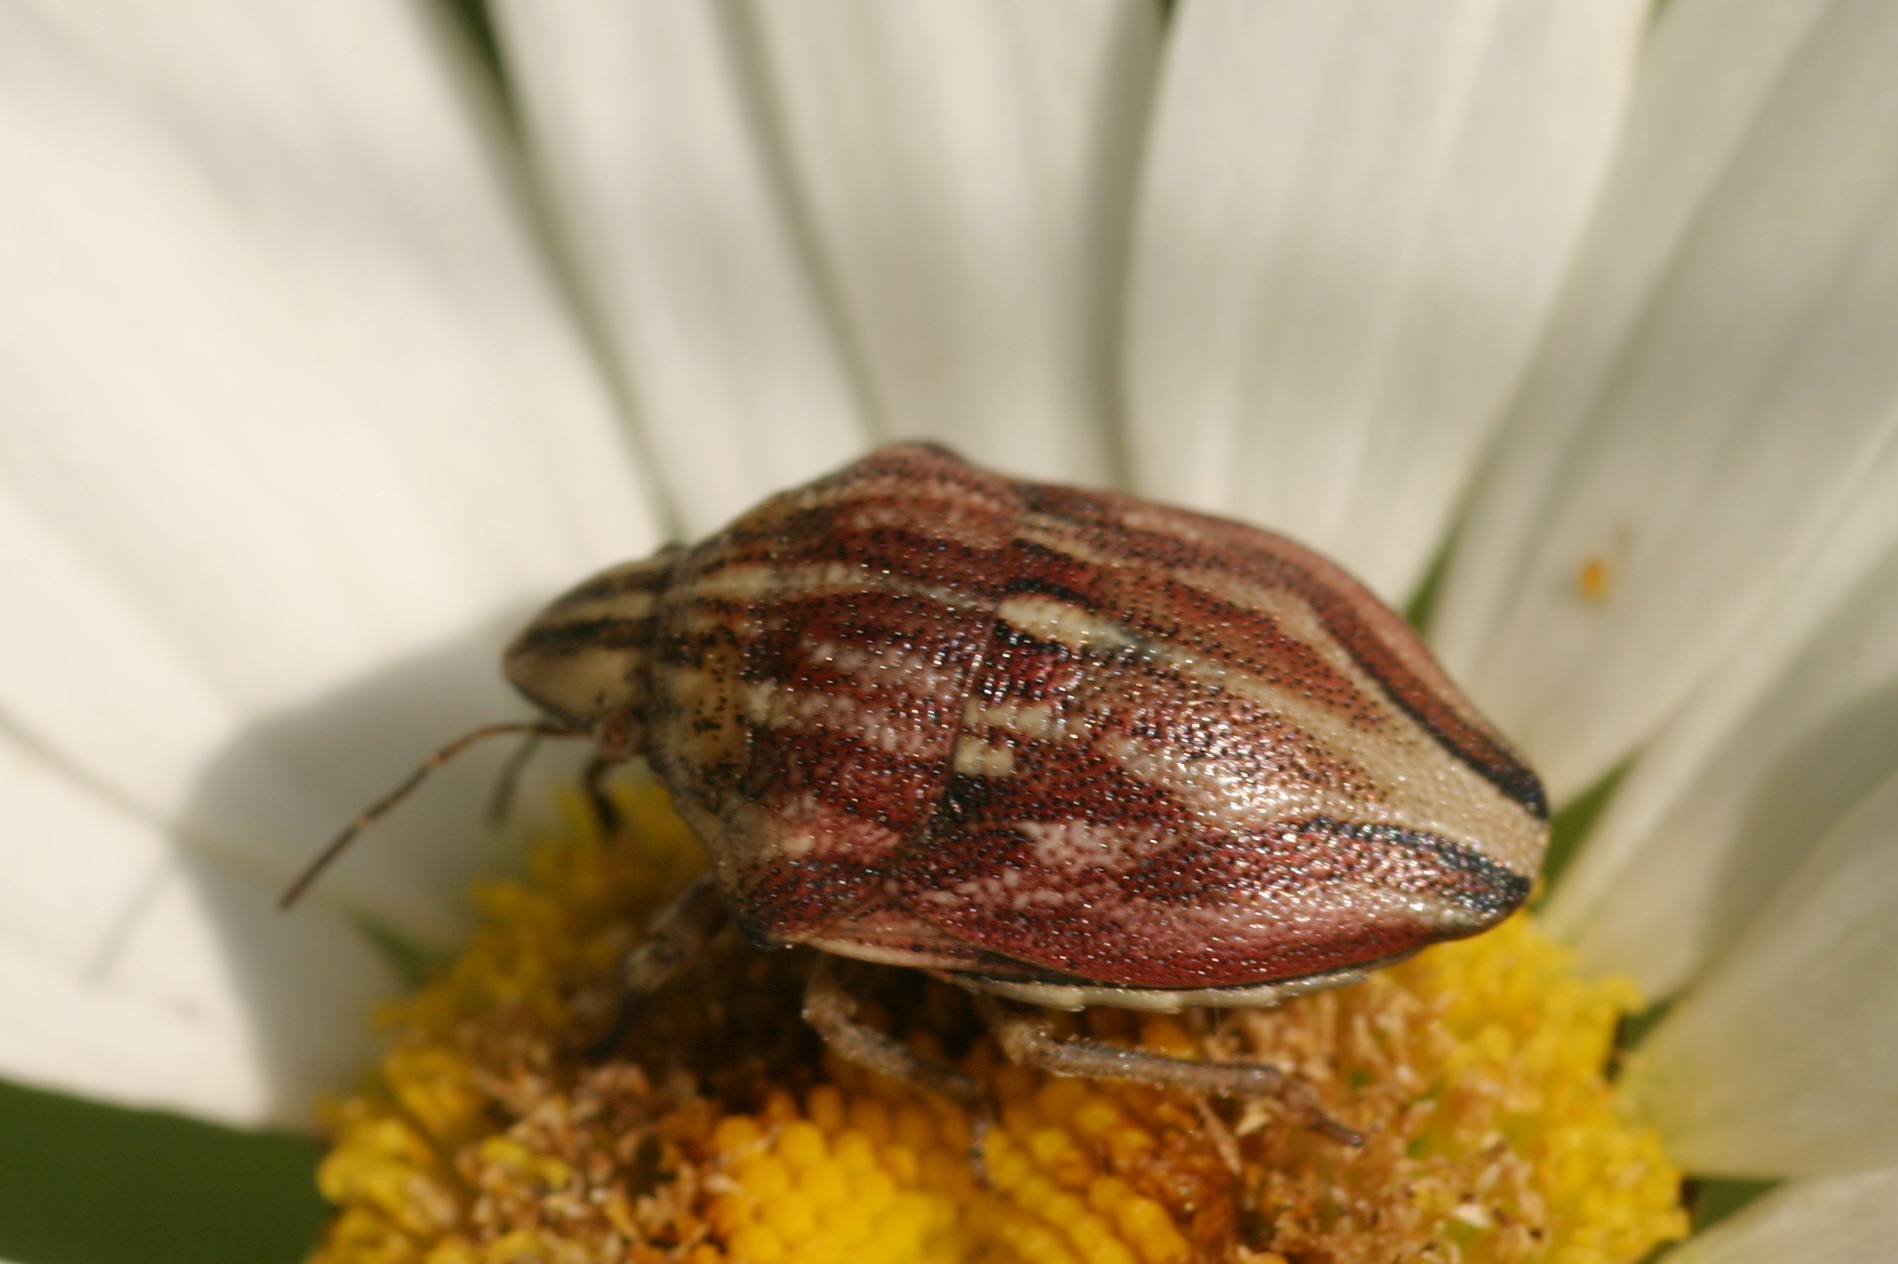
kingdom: Animalia
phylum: Arthropoda
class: Insecta
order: Hemiptera
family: Scutelleridae
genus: Odontotarsus
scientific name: Odontotarsus purpureolineatus
